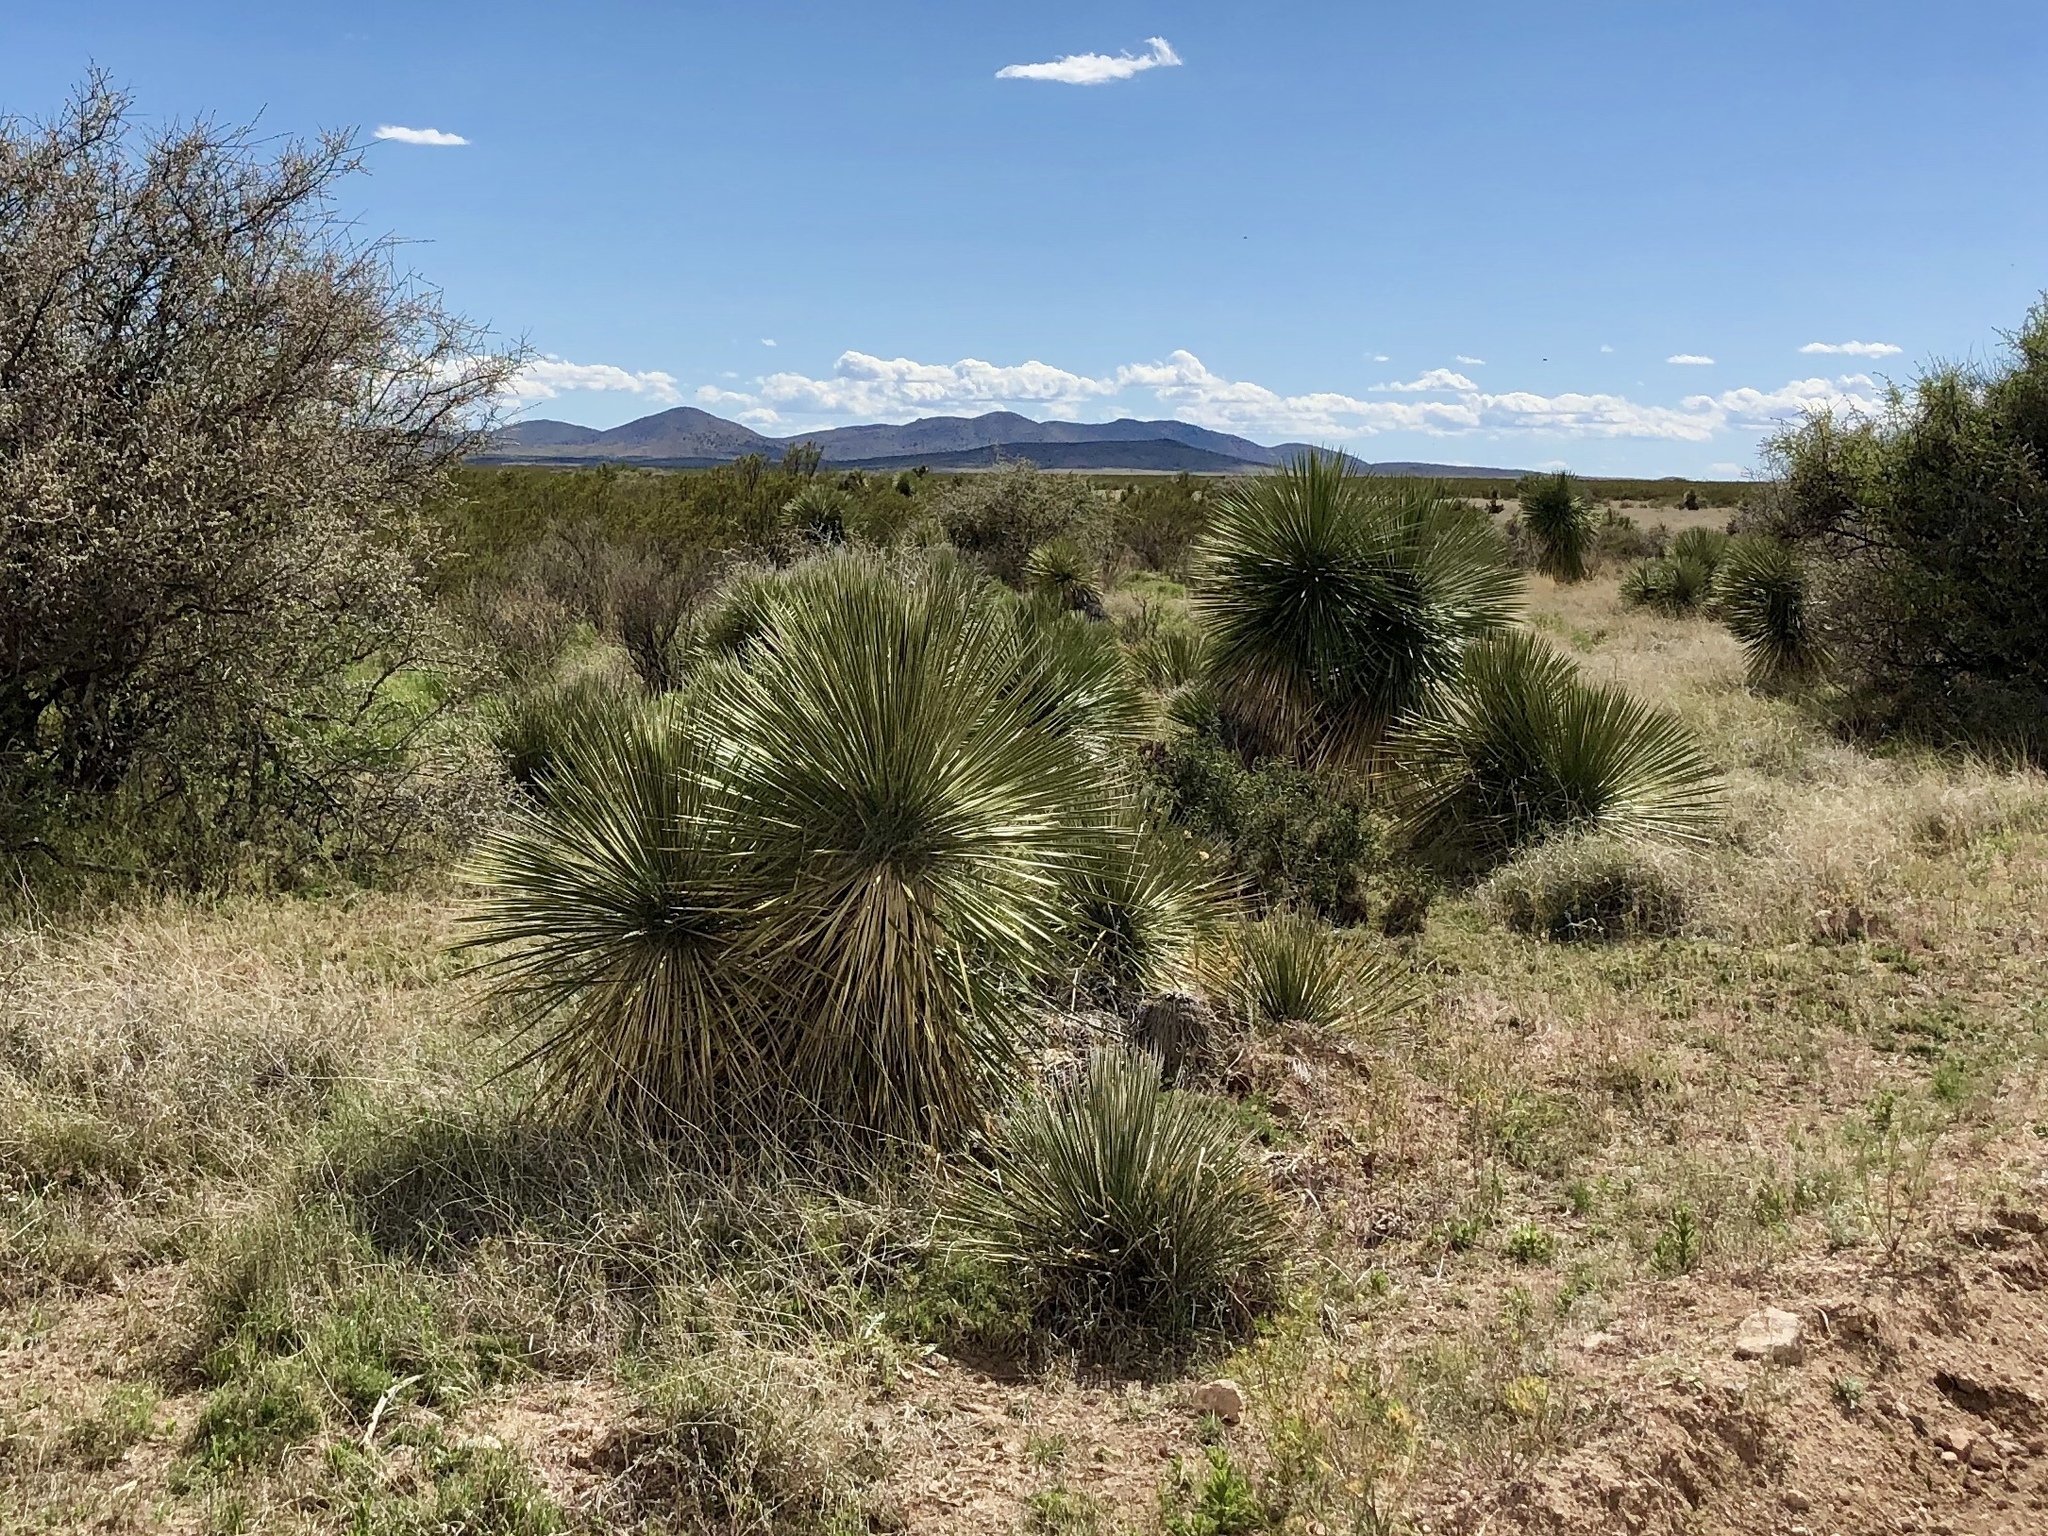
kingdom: Plantae
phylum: Tracheophyta
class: Liliopsida
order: Asparagales
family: Asparagaceae
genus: Yucca
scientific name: Yucca elata
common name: Palmella
